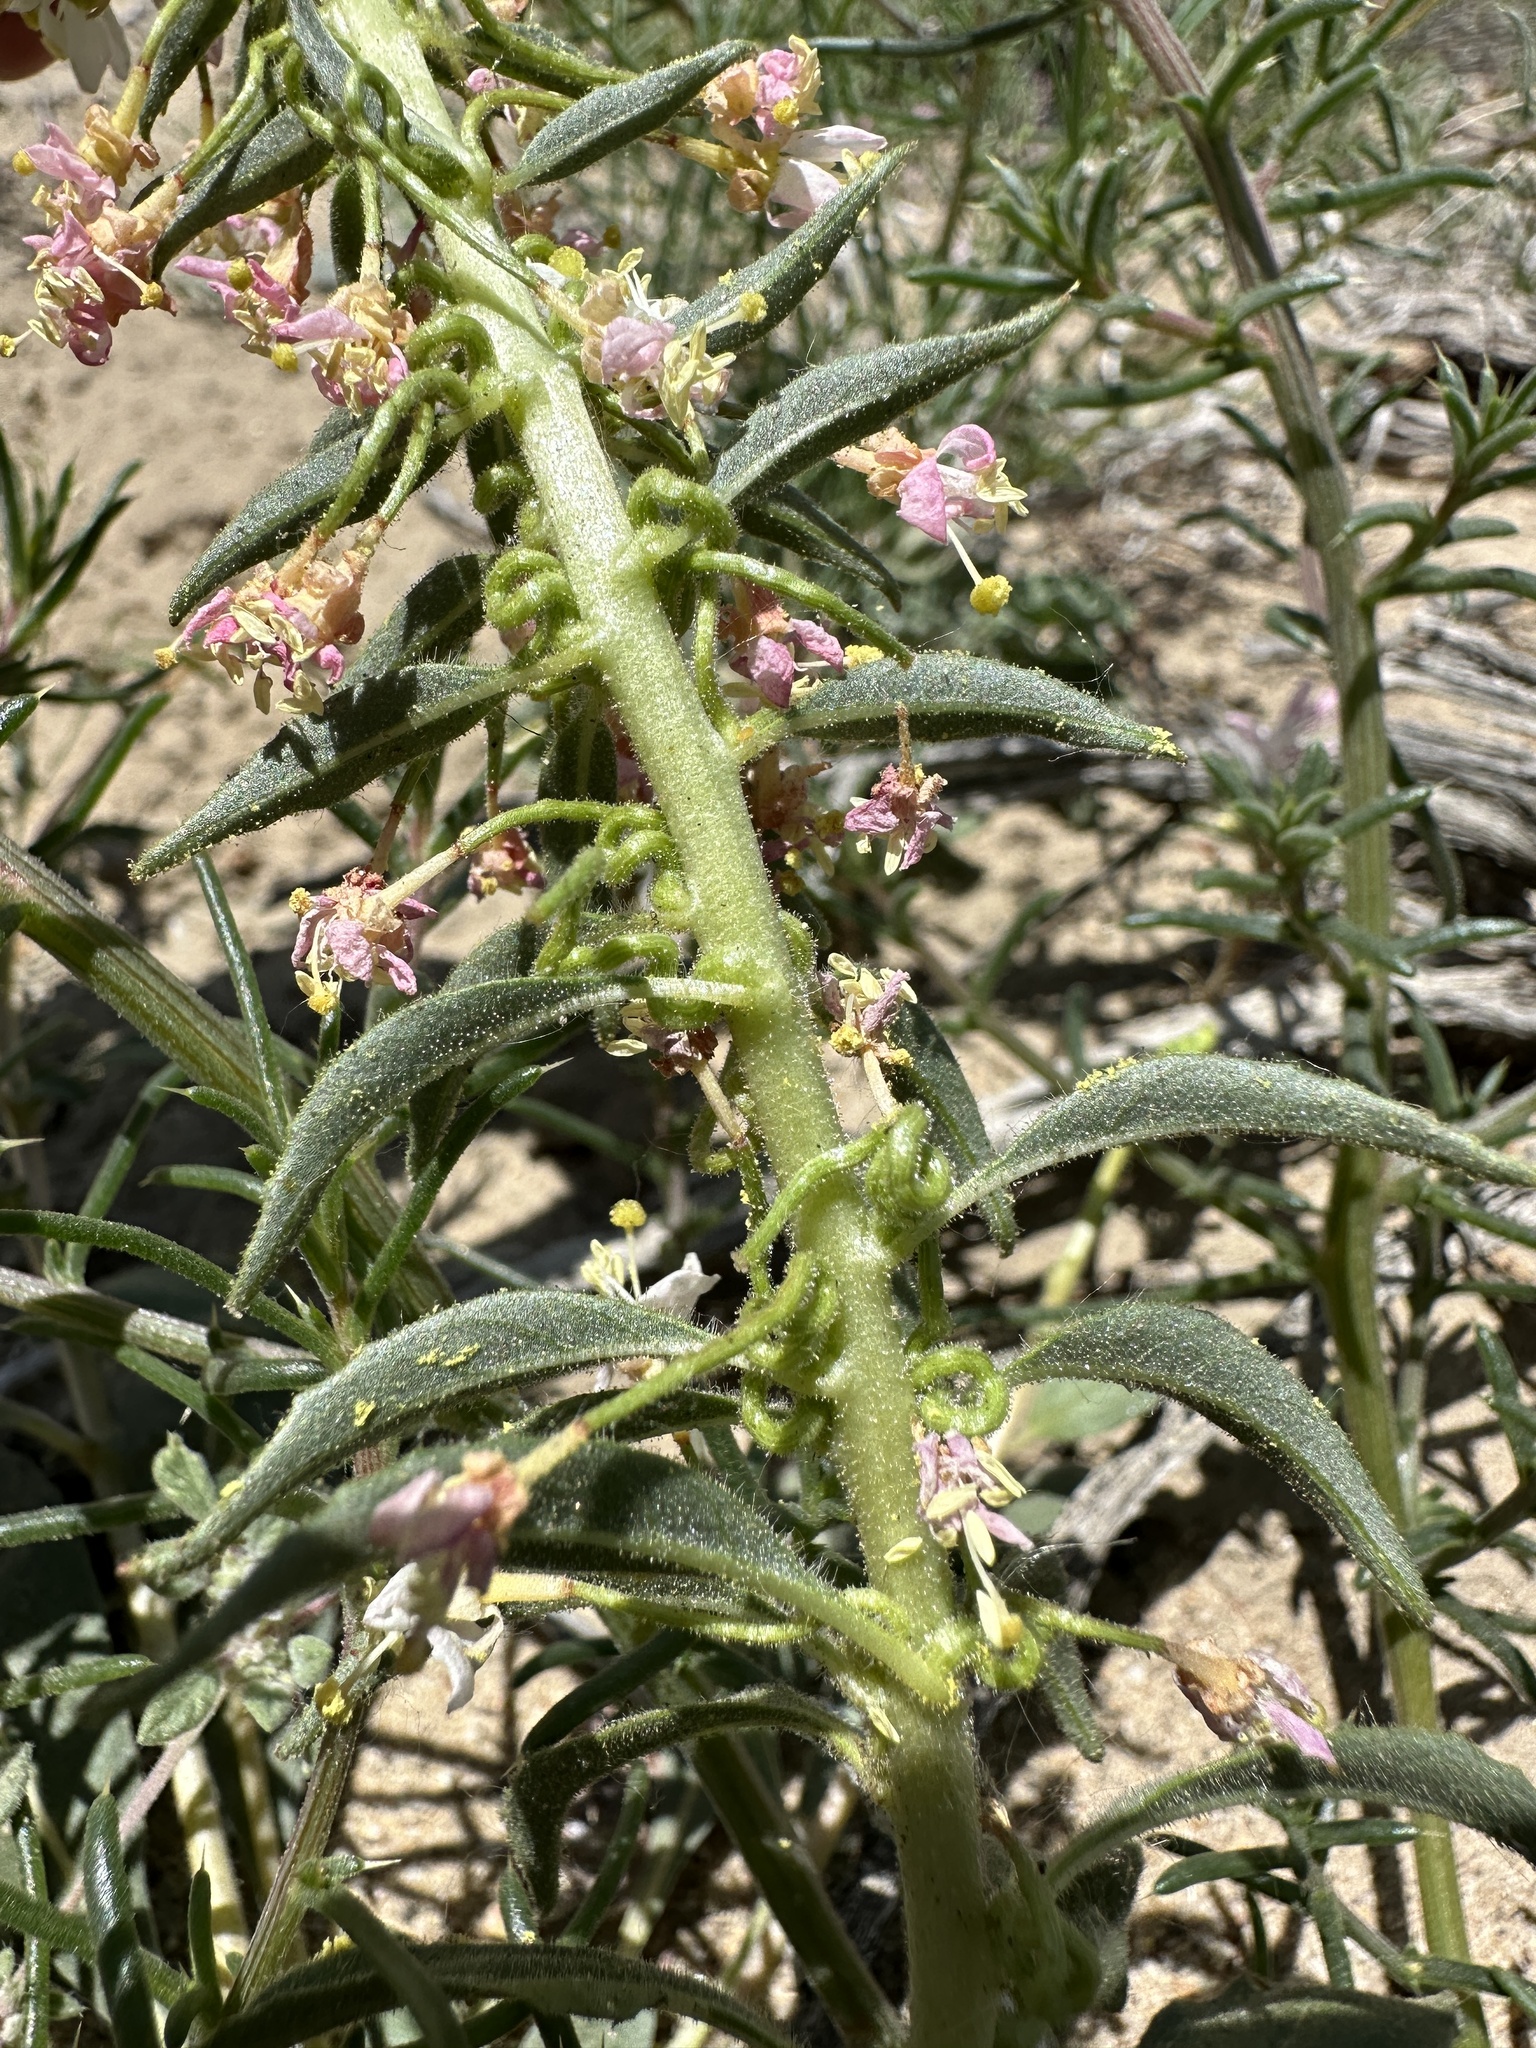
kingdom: Plantae
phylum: Tracheophyta
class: Magnoliopsida
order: Myrtales
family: Onagraceae
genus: Eremothera
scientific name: Eremothera boothii
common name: Booth's evening primrose
